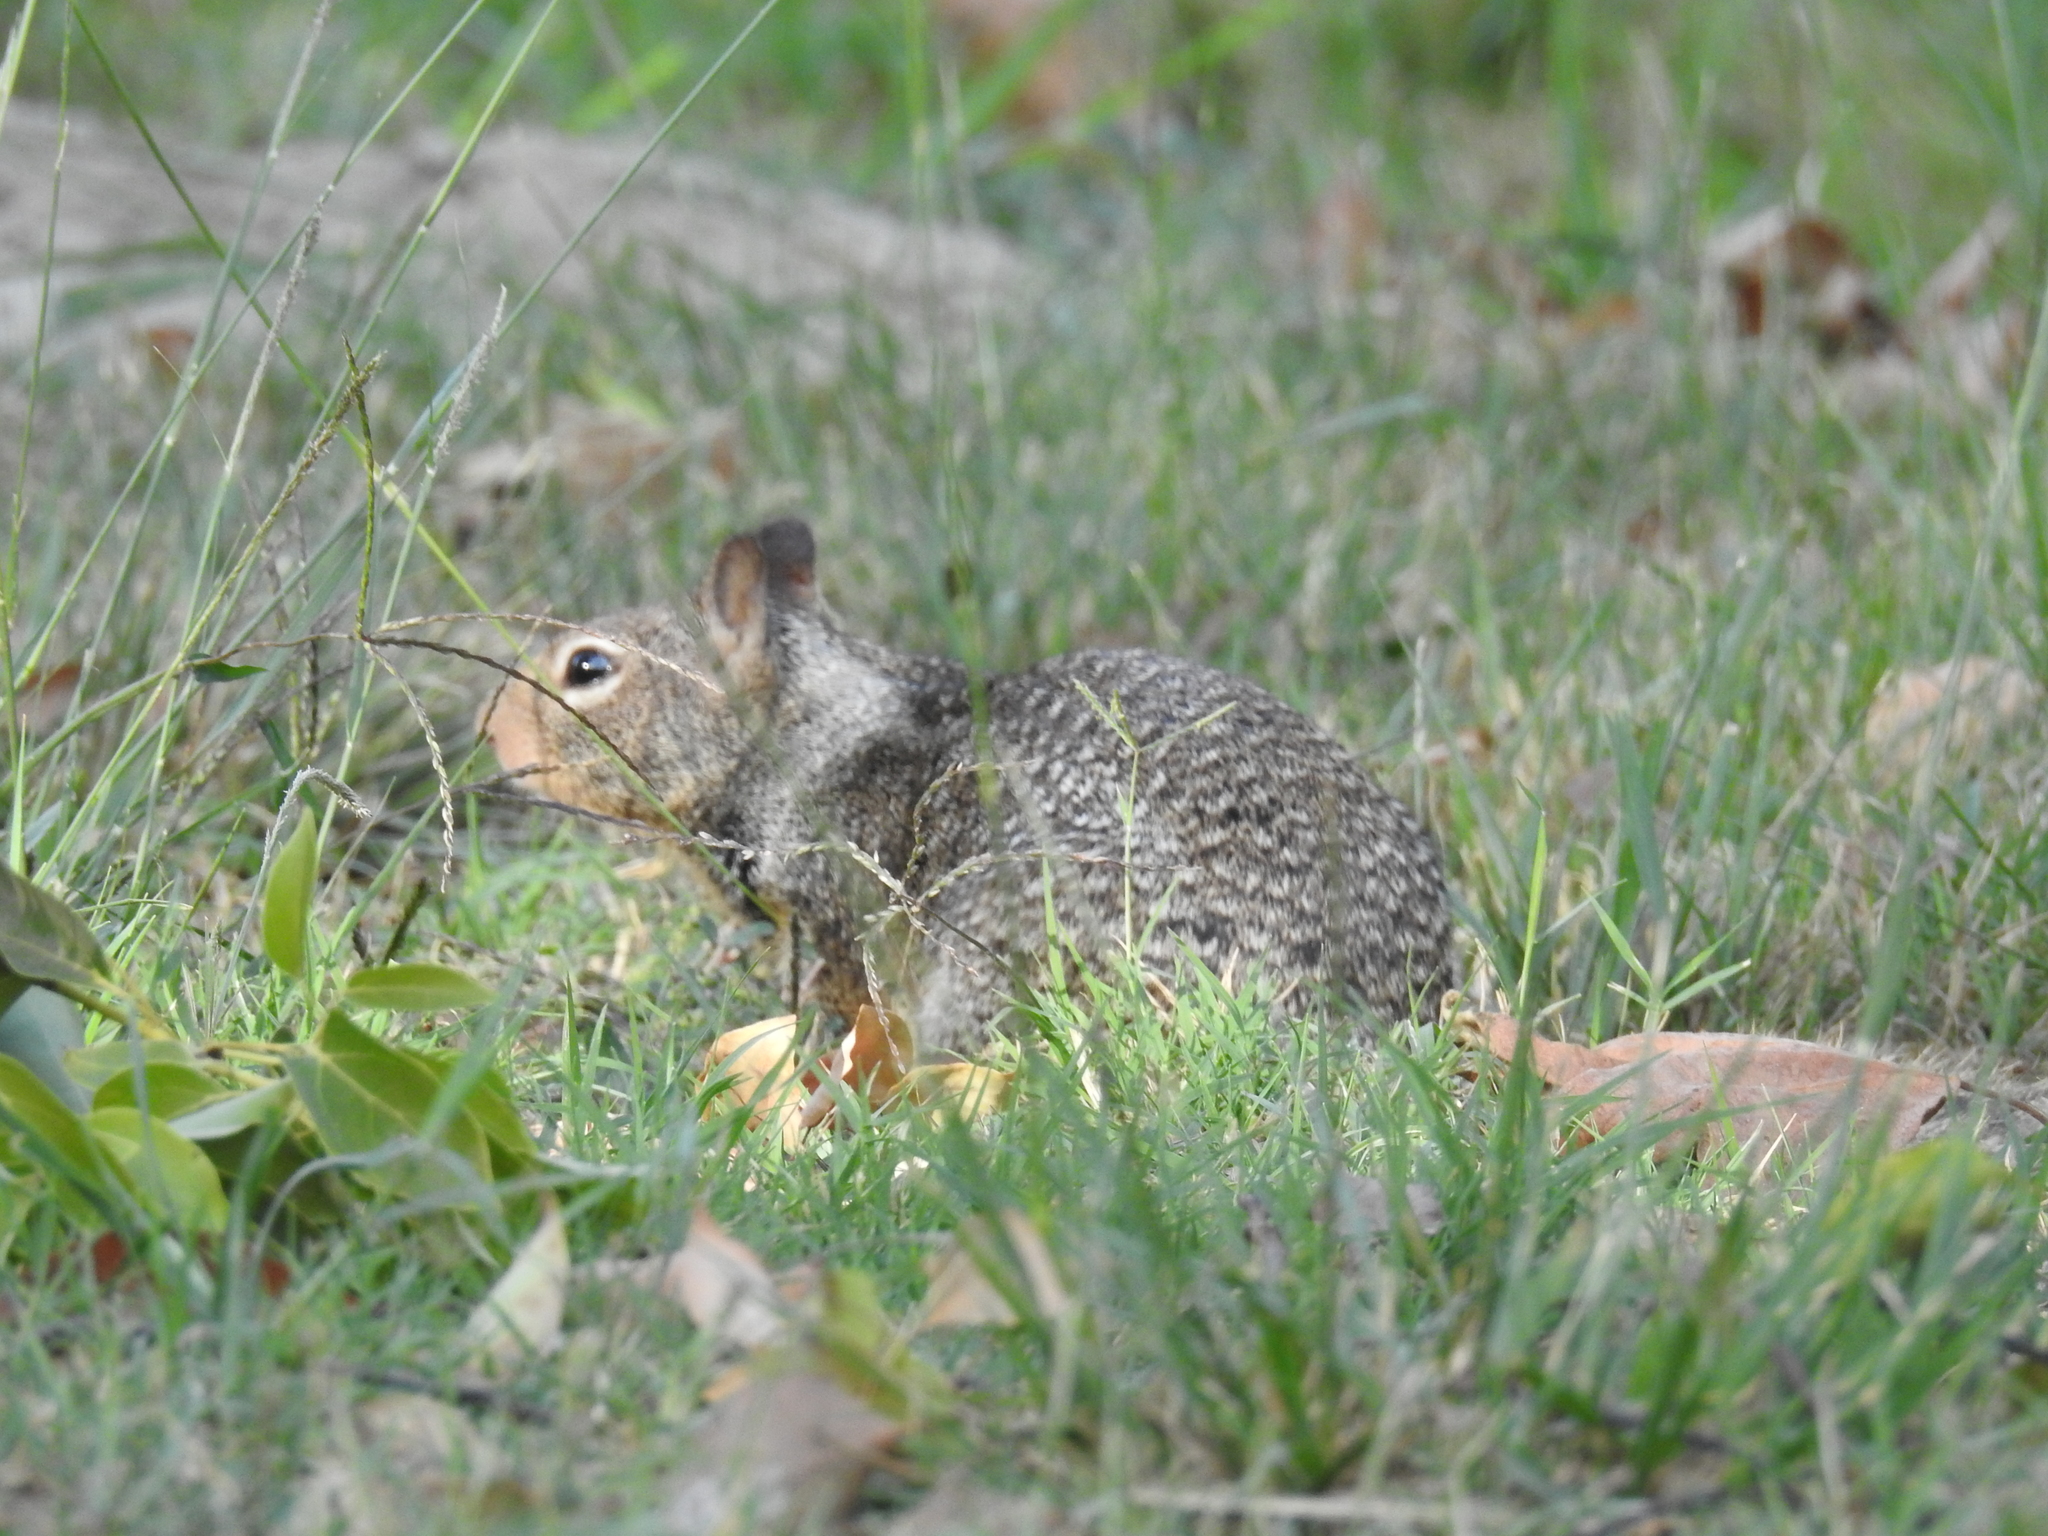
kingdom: Animalia
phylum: Chordata
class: Mammalia
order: Rodentia
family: Sciuridae
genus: Otospermophilus
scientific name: Otospermophilus beecheyi
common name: California ground squirrel
